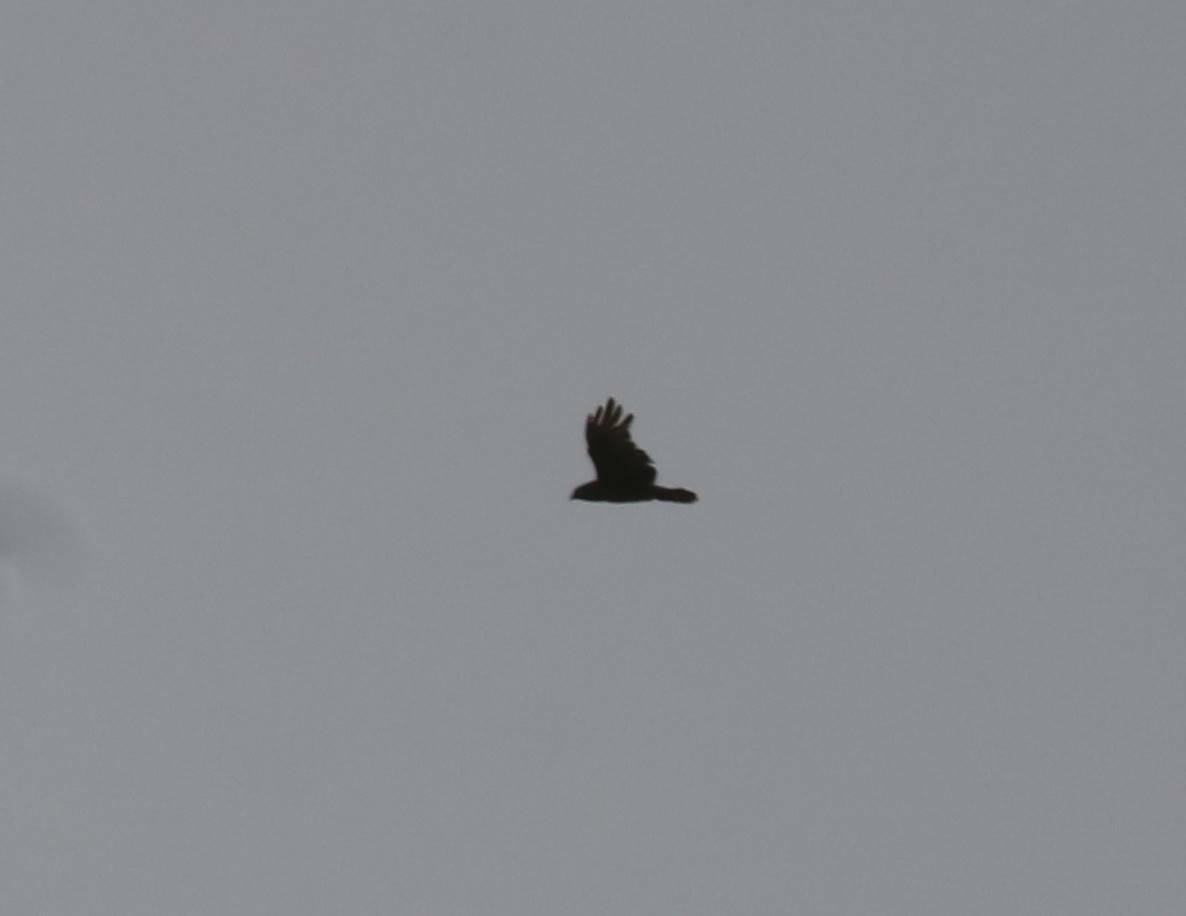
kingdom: Animalia
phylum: Chordata
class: Aves
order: Accipitriformes
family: Accipitridae
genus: Buteo
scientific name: Buteo buteo
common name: Common buzzard
